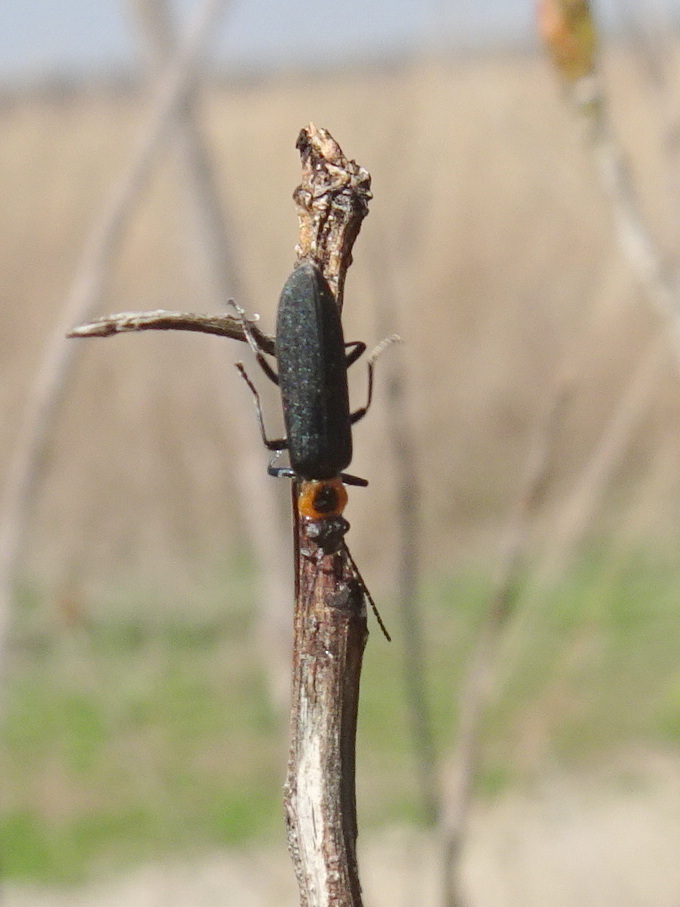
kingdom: Animalia
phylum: Arthropoda
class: Insecta
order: Coleoptera
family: Oedemeridae
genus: Ischnomera
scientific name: Ischnomera
